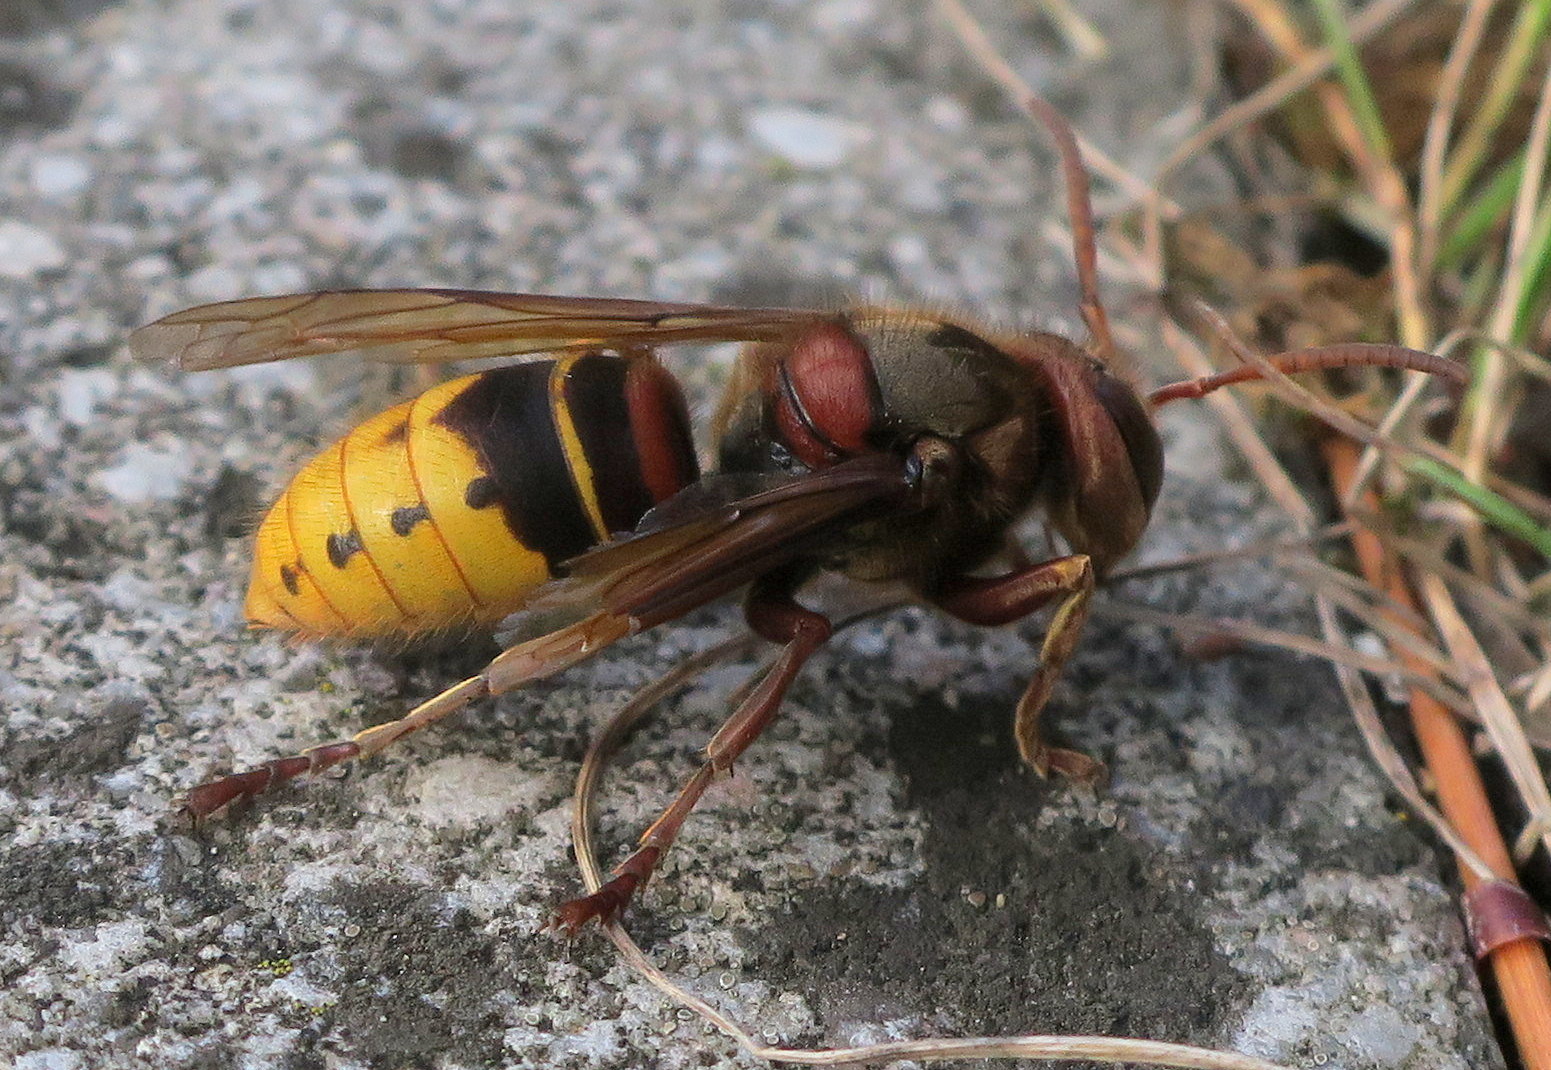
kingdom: Animalia
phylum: Arthropoda
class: Insecta
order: Hymenoptera
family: Vespidae
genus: Vespa
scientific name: Vespa crabro
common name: Hornet
